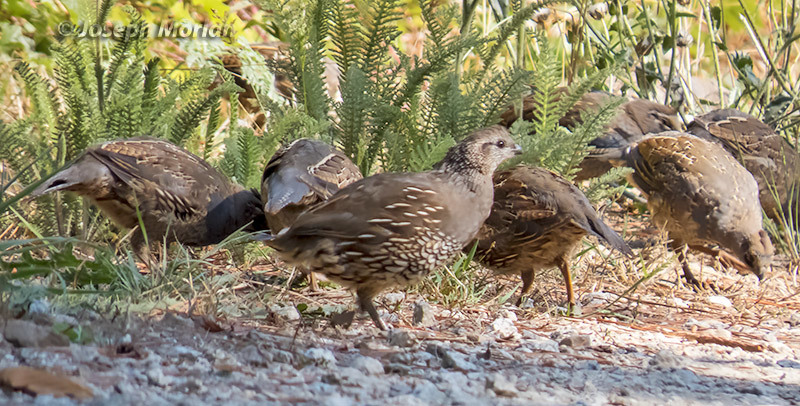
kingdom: Animalia
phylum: Chordata
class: Aves
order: Galliformes
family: Odontophoridae
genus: Callipepla
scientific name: Callipepla californica
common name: California quail
